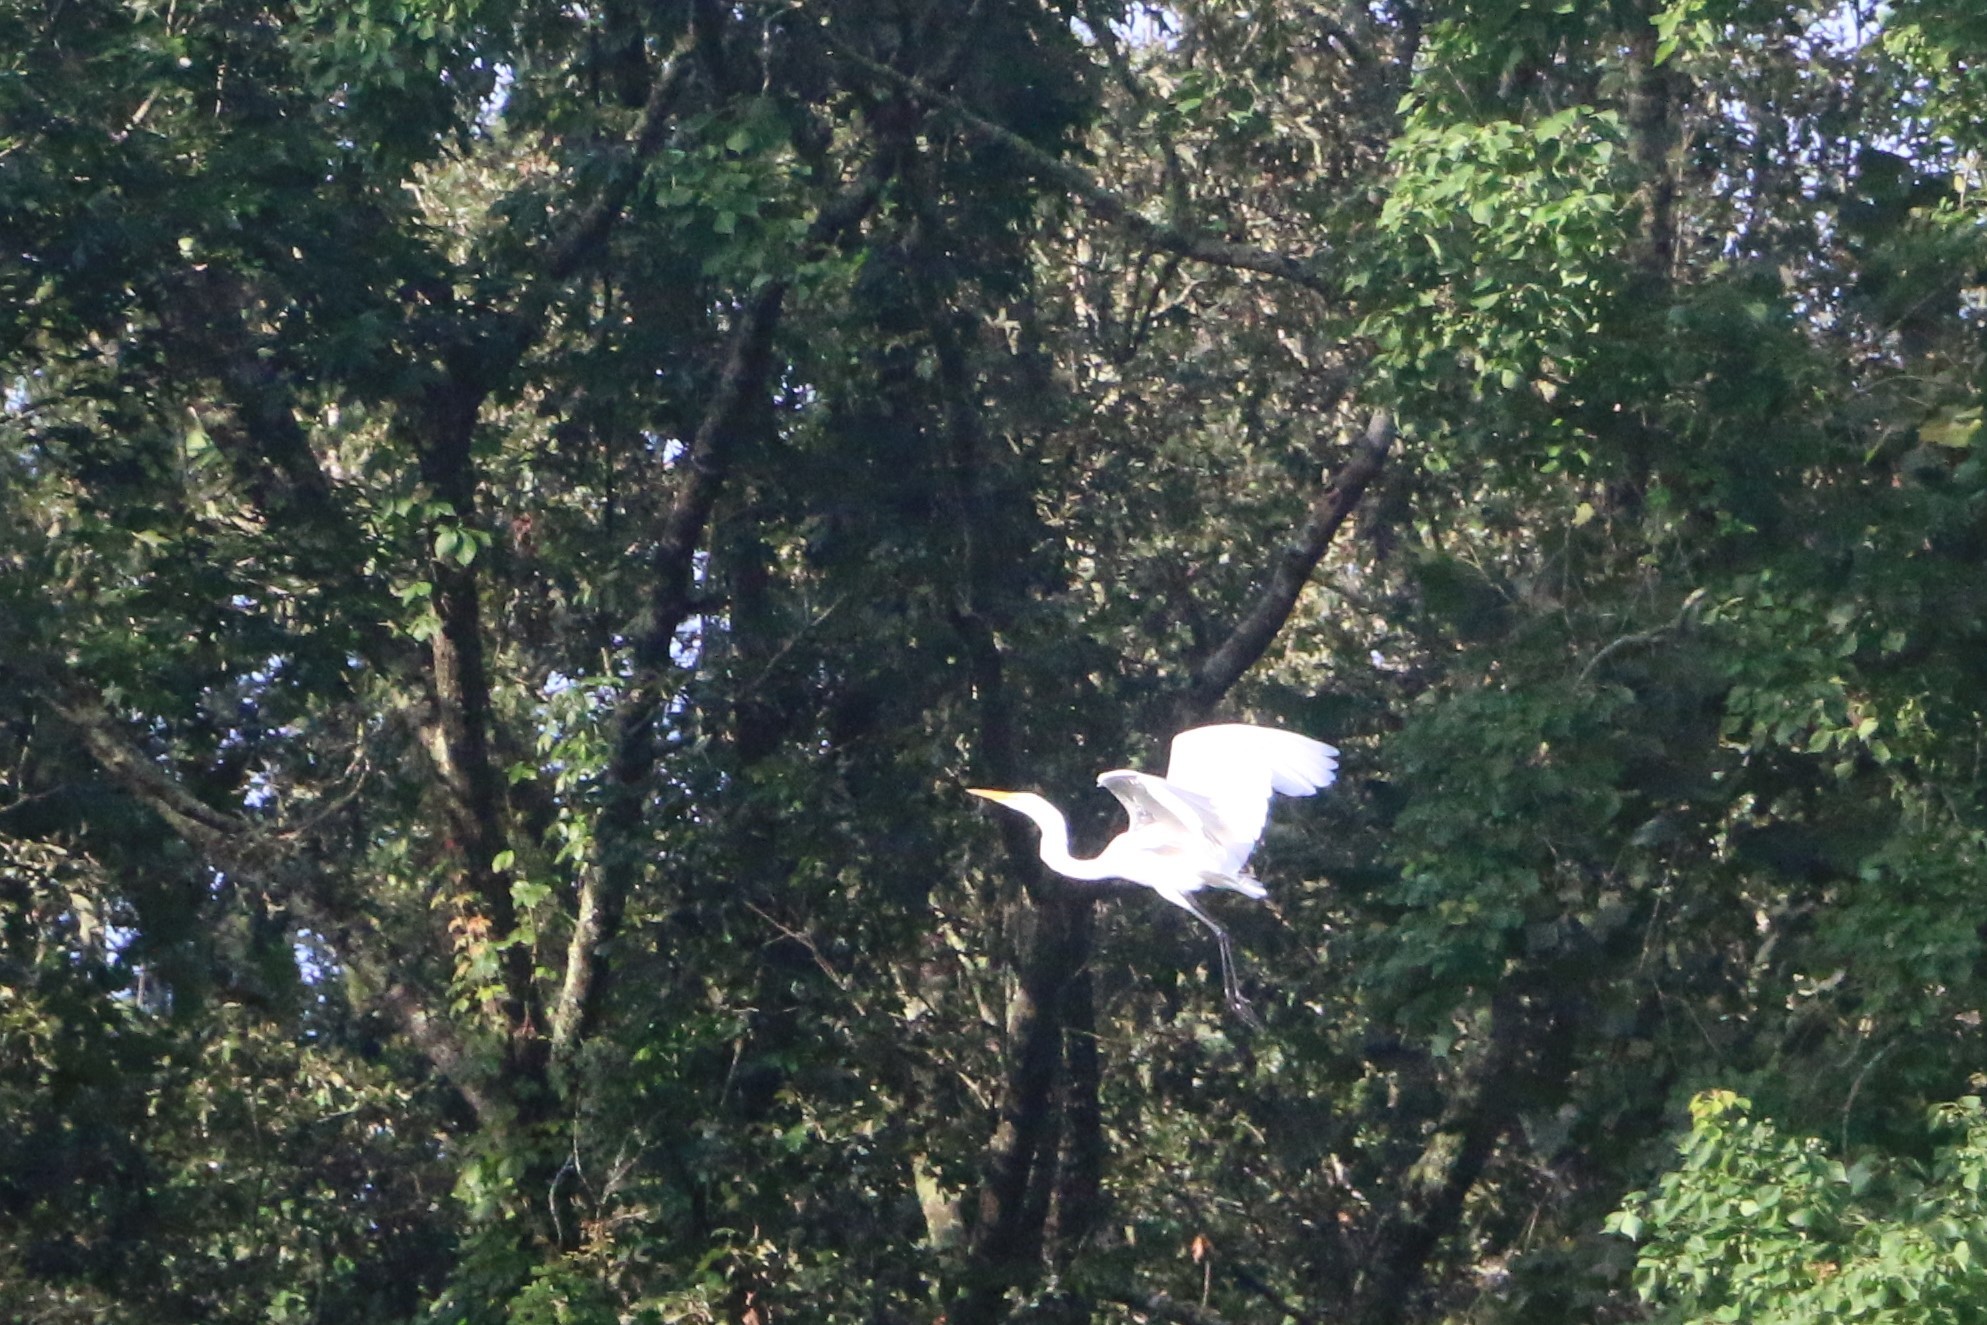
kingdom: Animalia
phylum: Chordata
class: Aves
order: Pelecaniformes
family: Ardeidae
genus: Ardea
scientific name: Ardea alba
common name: Great egret
